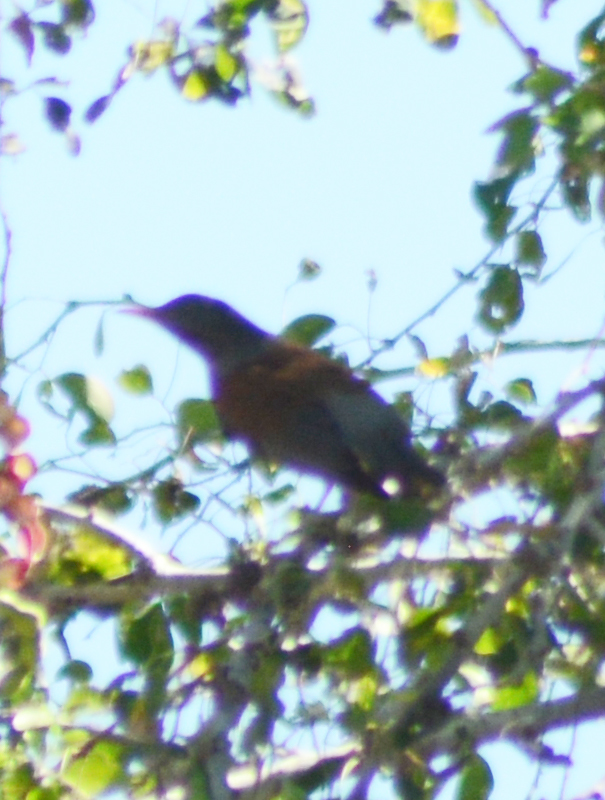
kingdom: Animalia
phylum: Chordata
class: Aves
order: Passeriformes
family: Turdidae
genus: Turdus
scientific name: Turdus rufopalliatus
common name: Rufous-backed robin
